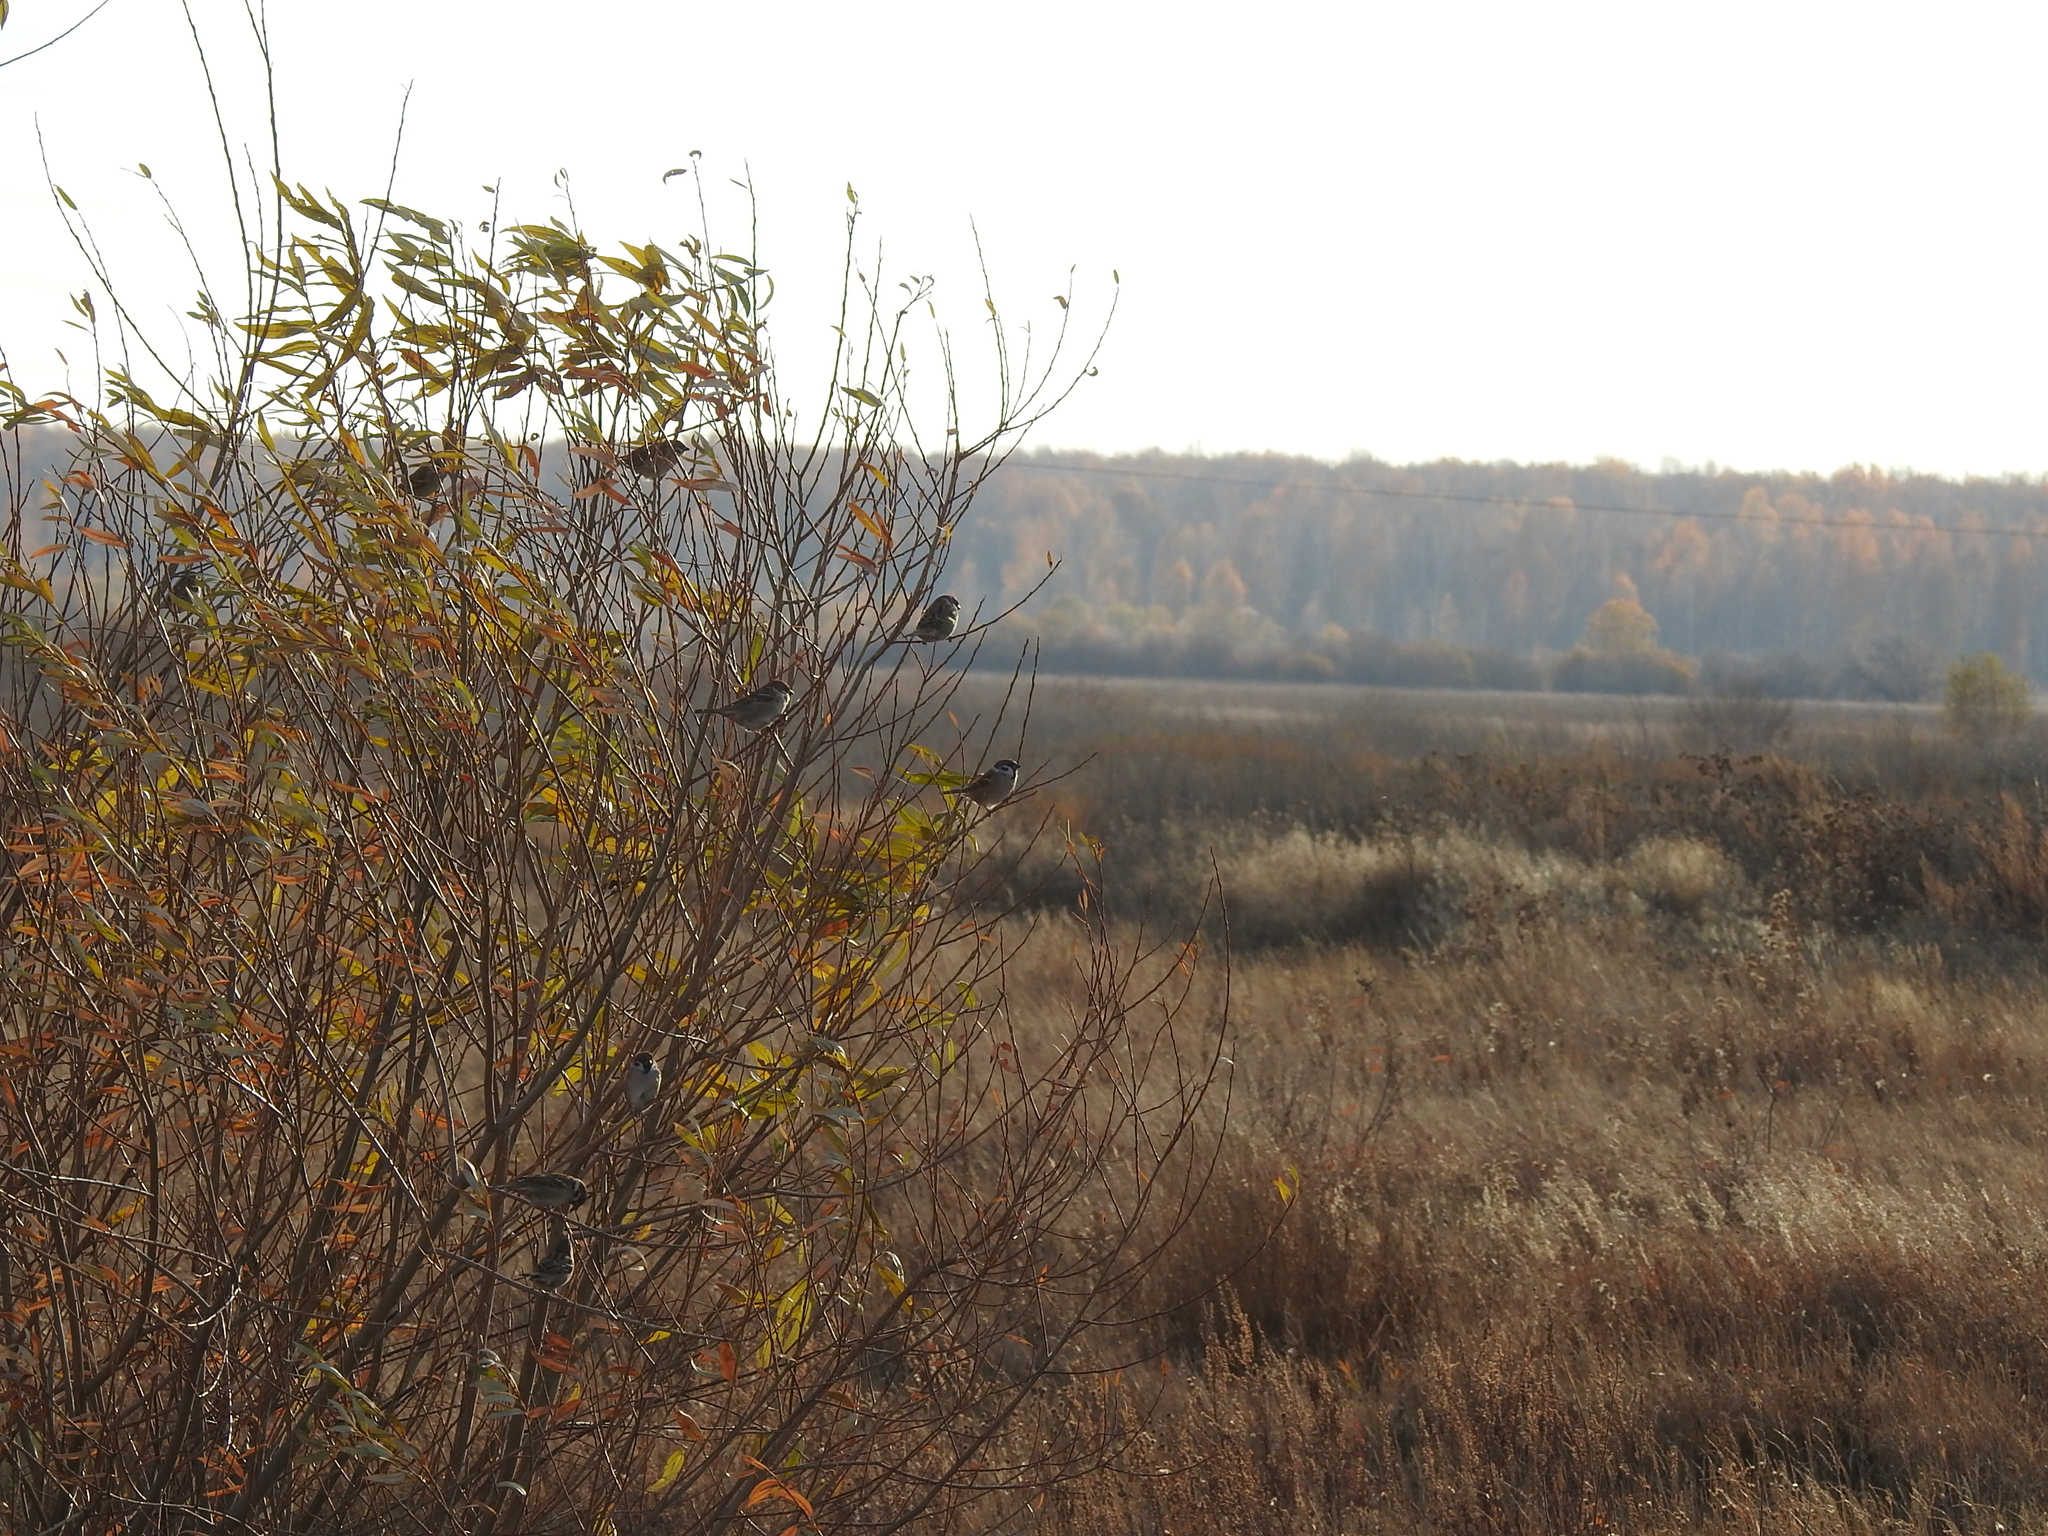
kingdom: Animalia
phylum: Chordata
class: Aves
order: Passeriformes
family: Passeridae
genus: Passer
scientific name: Passer montanus
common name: Eurasian tree sparrow
